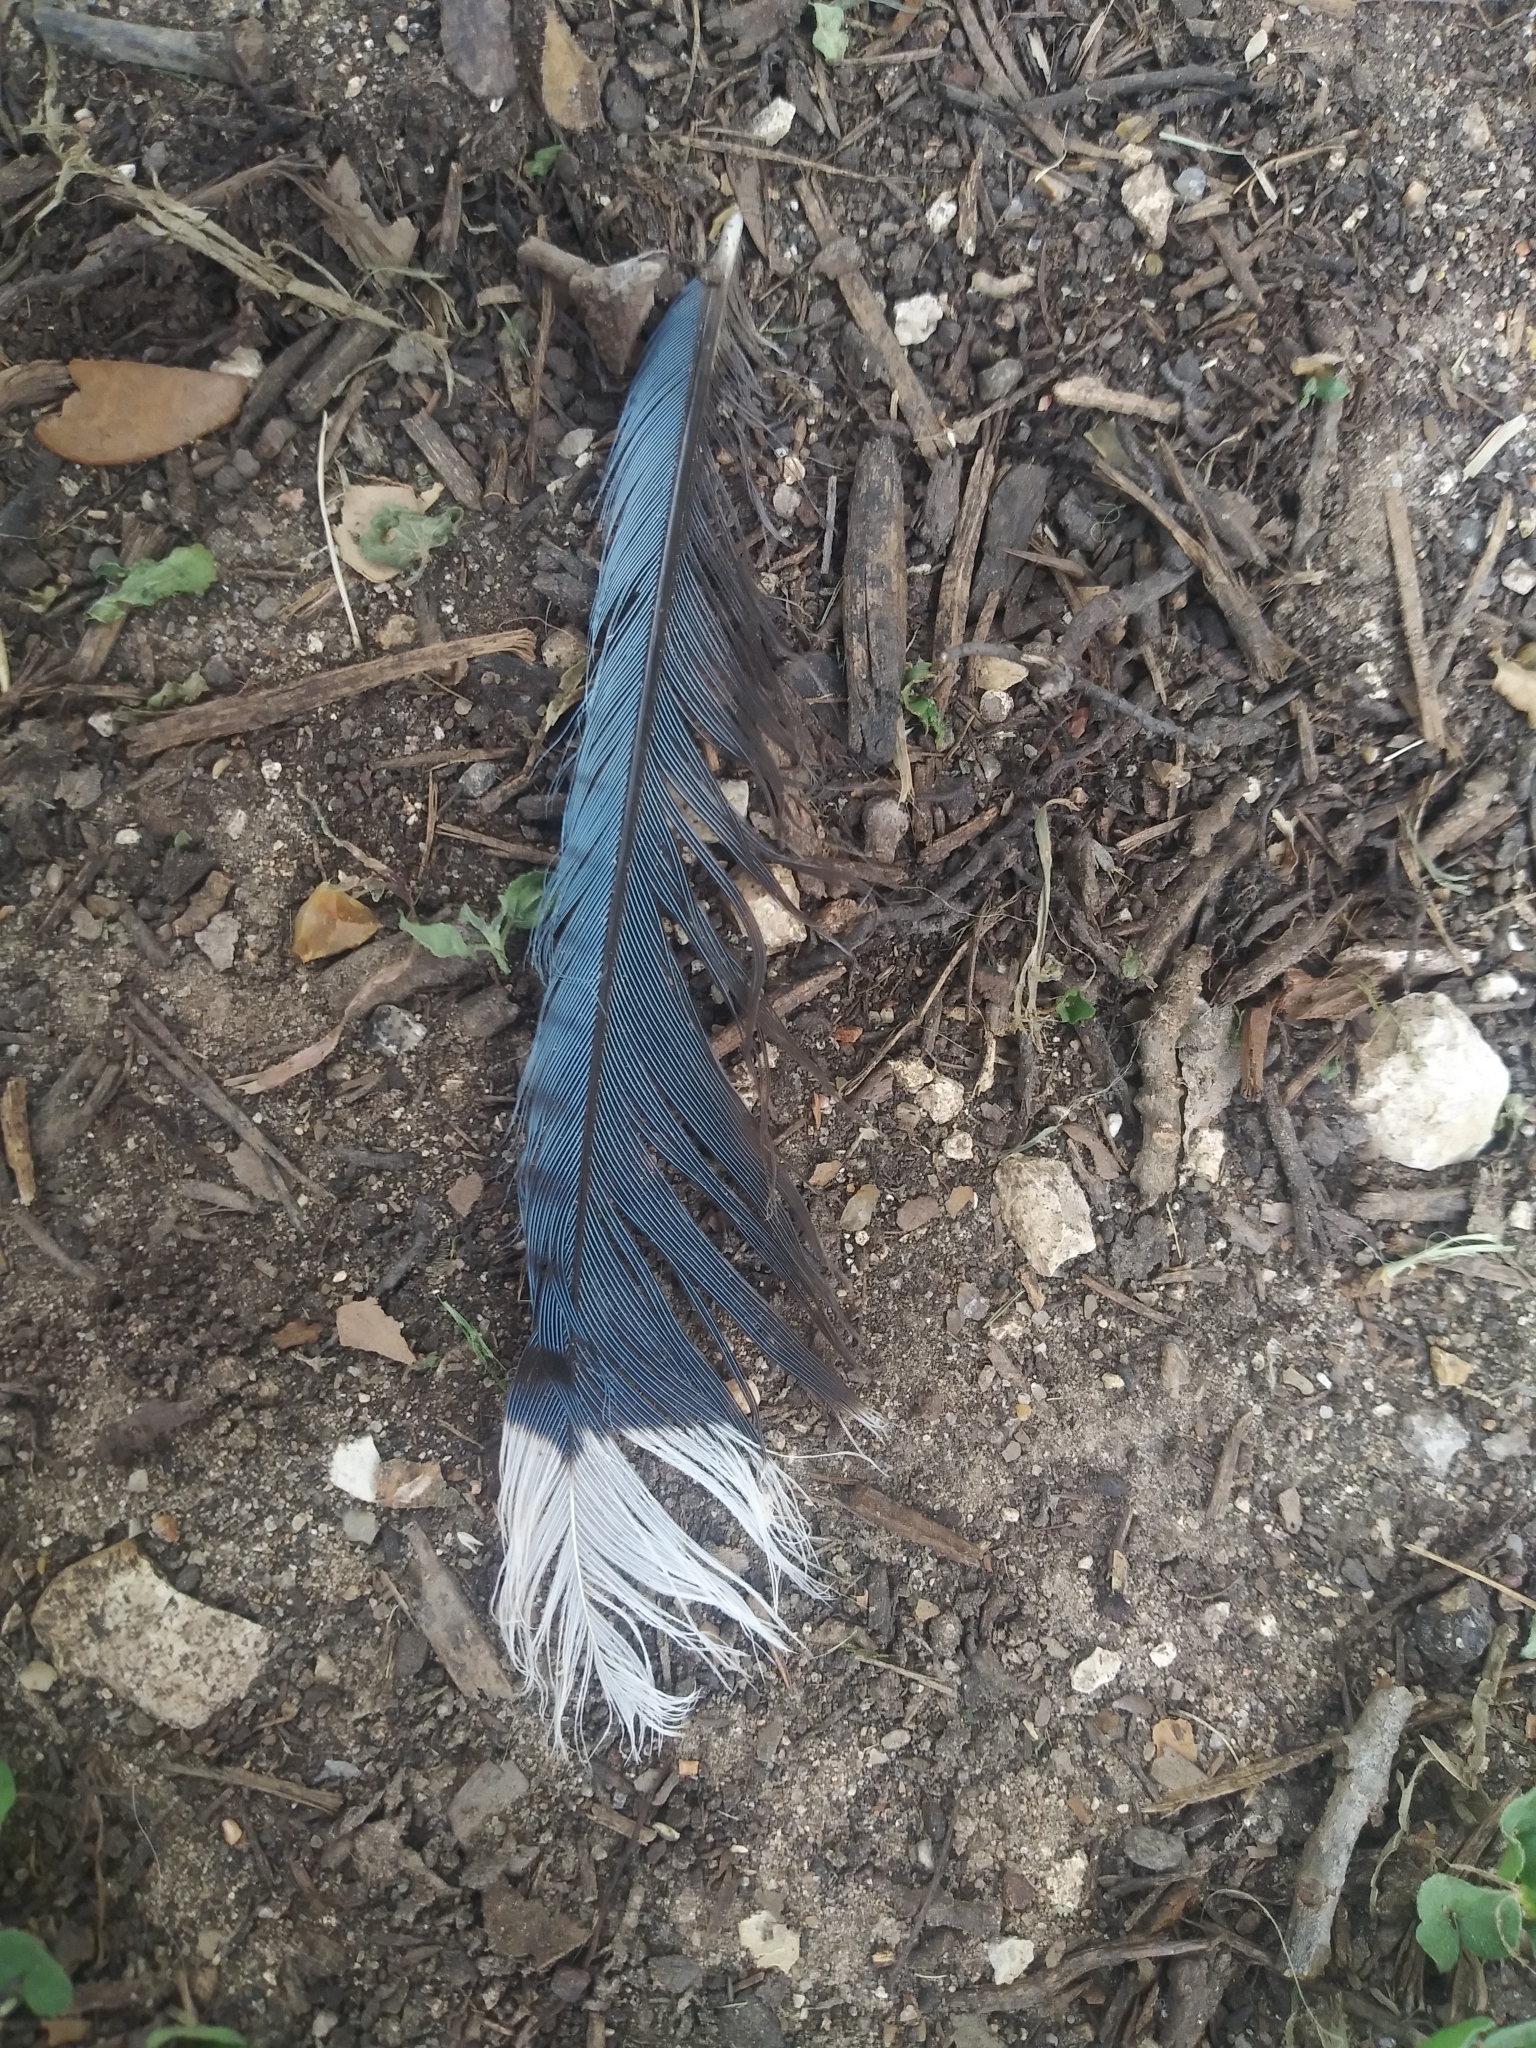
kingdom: Animalia
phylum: Chordata
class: Aves
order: Passeriformes
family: Corvidae
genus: Cyanocitta
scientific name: Cyanocitta cristata
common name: Blue jay
